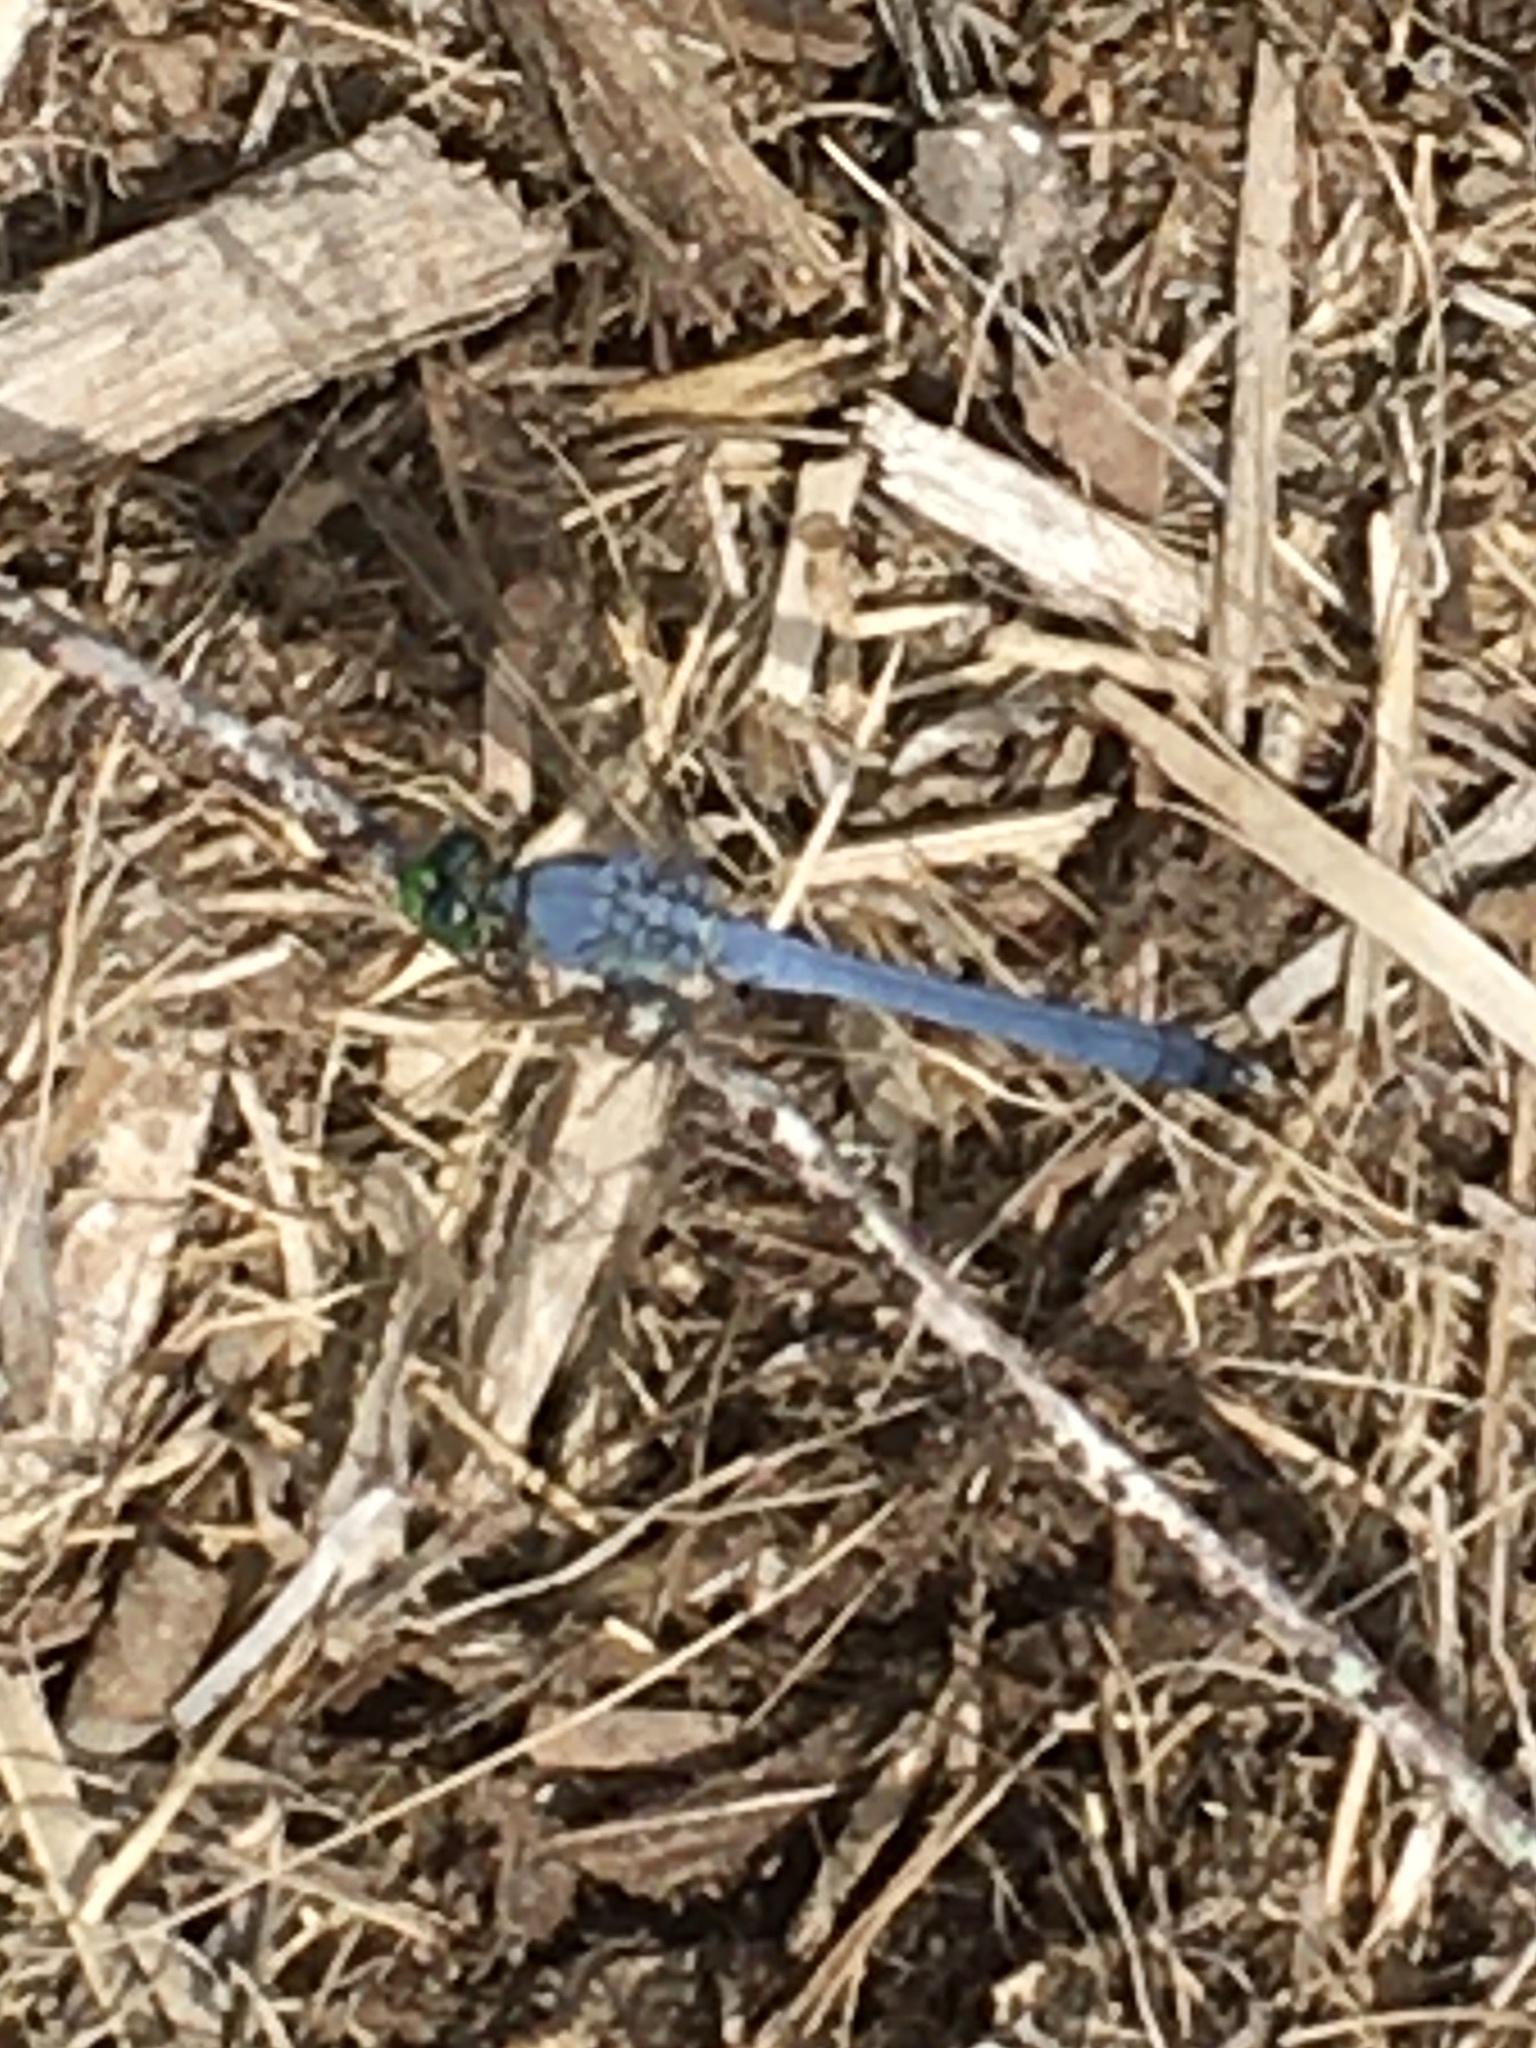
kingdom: Animalia
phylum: Arthropoda
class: Insecta
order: Odonata
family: Libellulidae
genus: Erythemis
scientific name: Erythemis simplicicollis
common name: Eastern pondhawk
